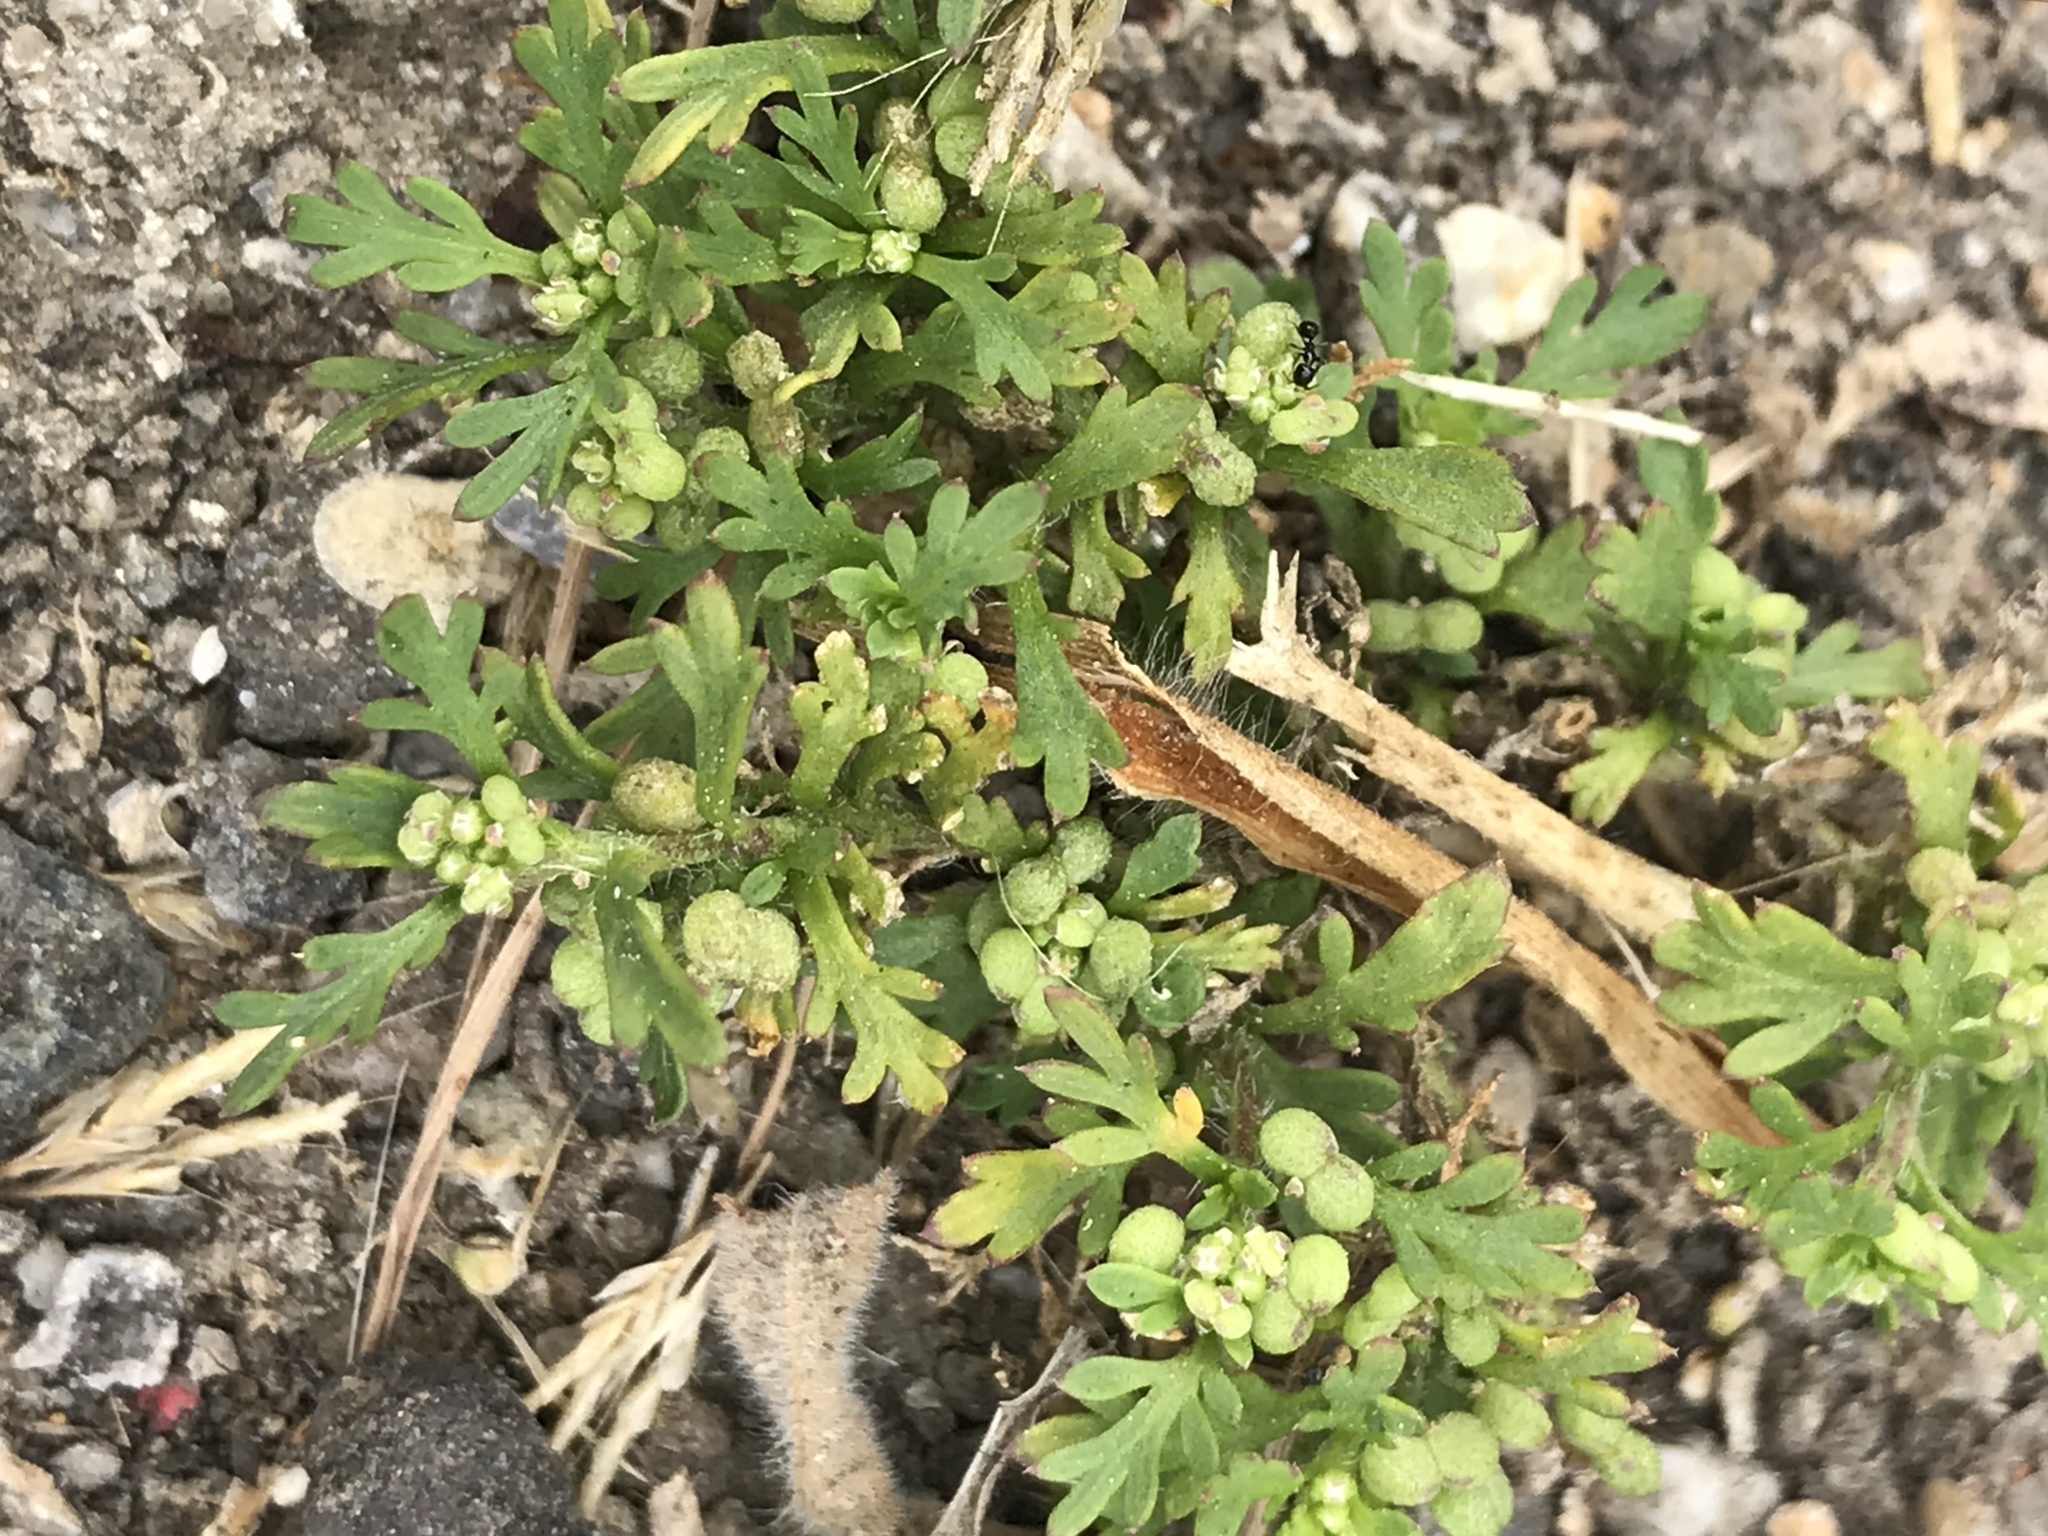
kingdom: Plantae
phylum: Tracheophyta
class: Magnoliopsida
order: Brassicales
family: Brassicaceae
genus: Lepidium
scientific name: Lepidium didymum
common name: Lesser swinecress
